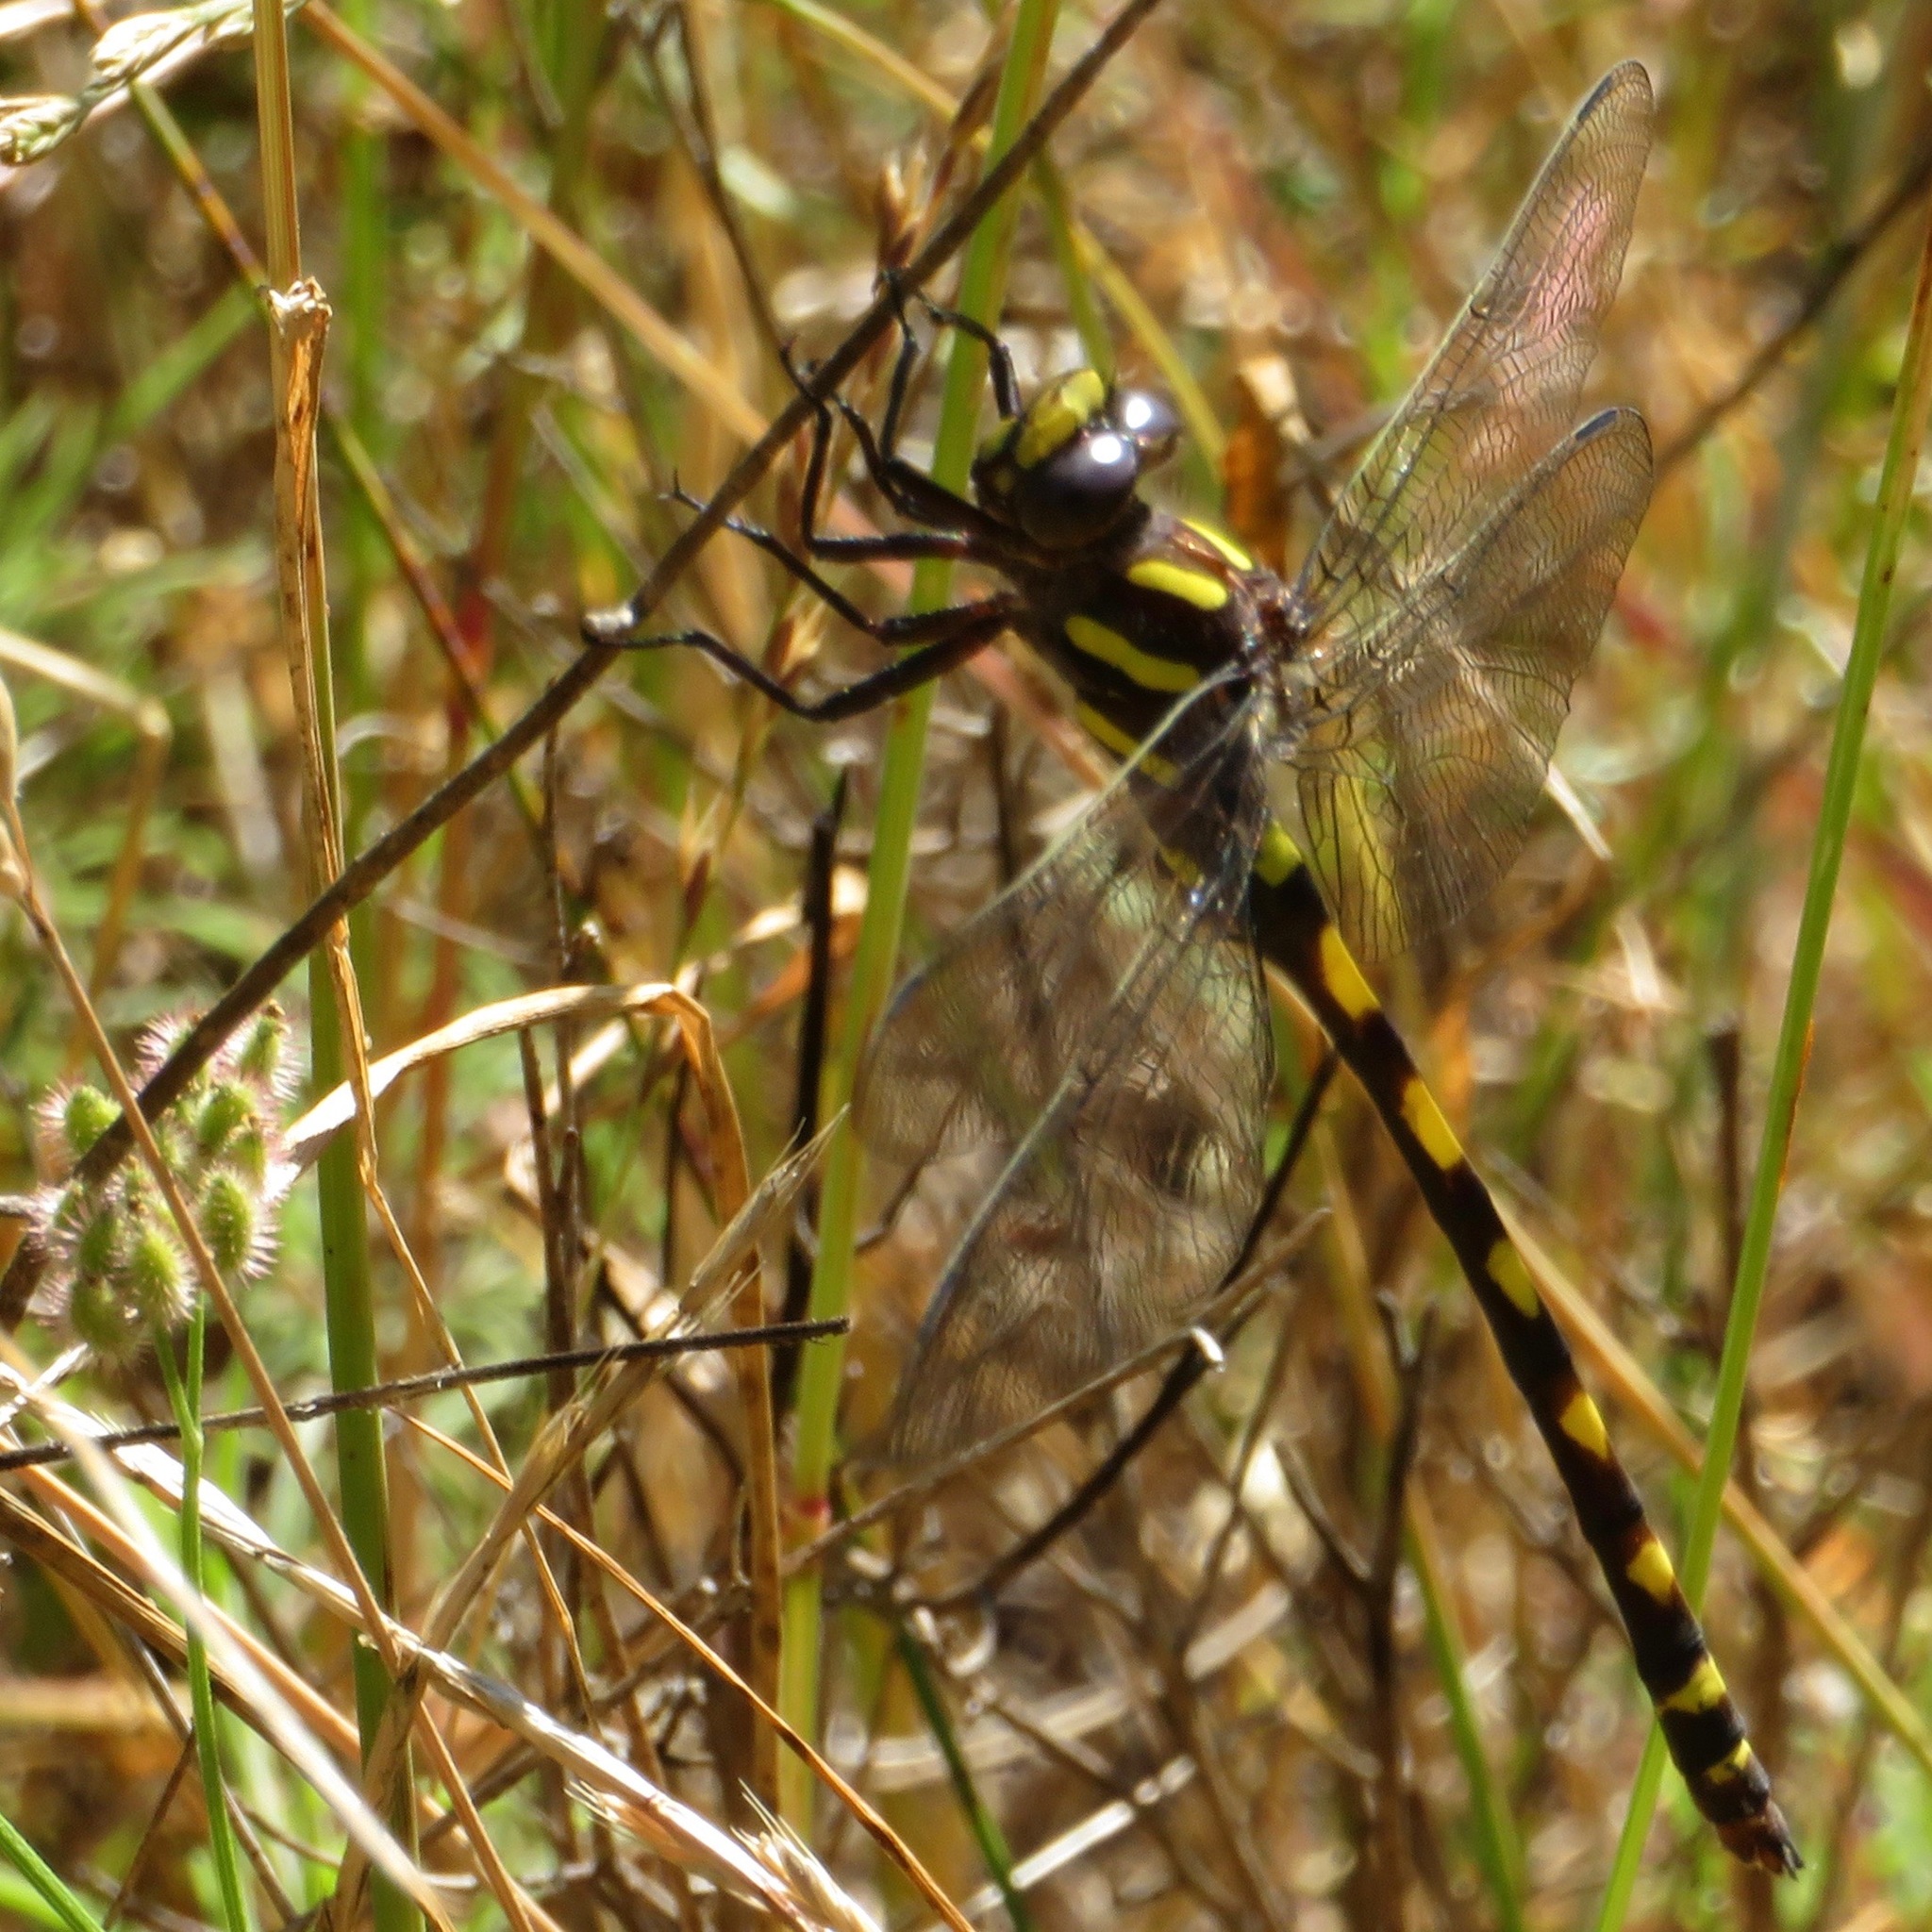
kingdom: Animalia
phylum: Arthropoda
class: Insecta
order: Odonata
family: Cordulegastridae
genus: Cordulegaster
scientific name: Cordulegaster dorsalis
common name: Pacific spiketail
